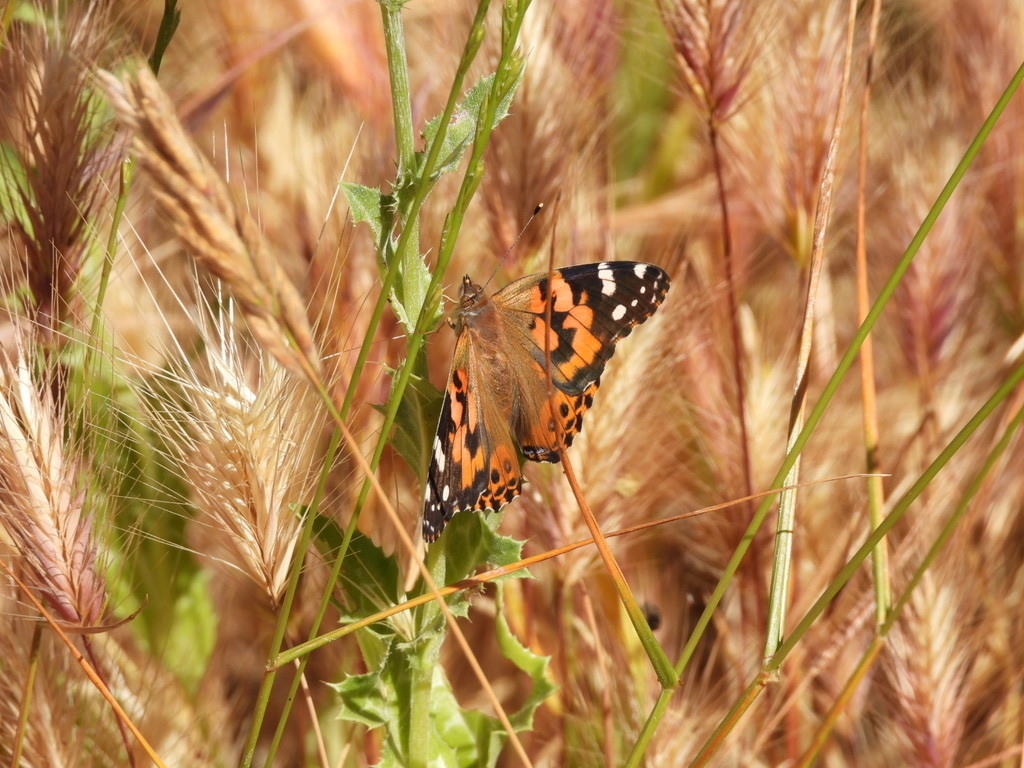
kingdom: Animalia
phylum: Arthropoda
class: Insecta
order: Lepidoptera
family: Nymphalidae
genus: Vanessa
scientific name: Vanessa cardui
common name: Painted lady
